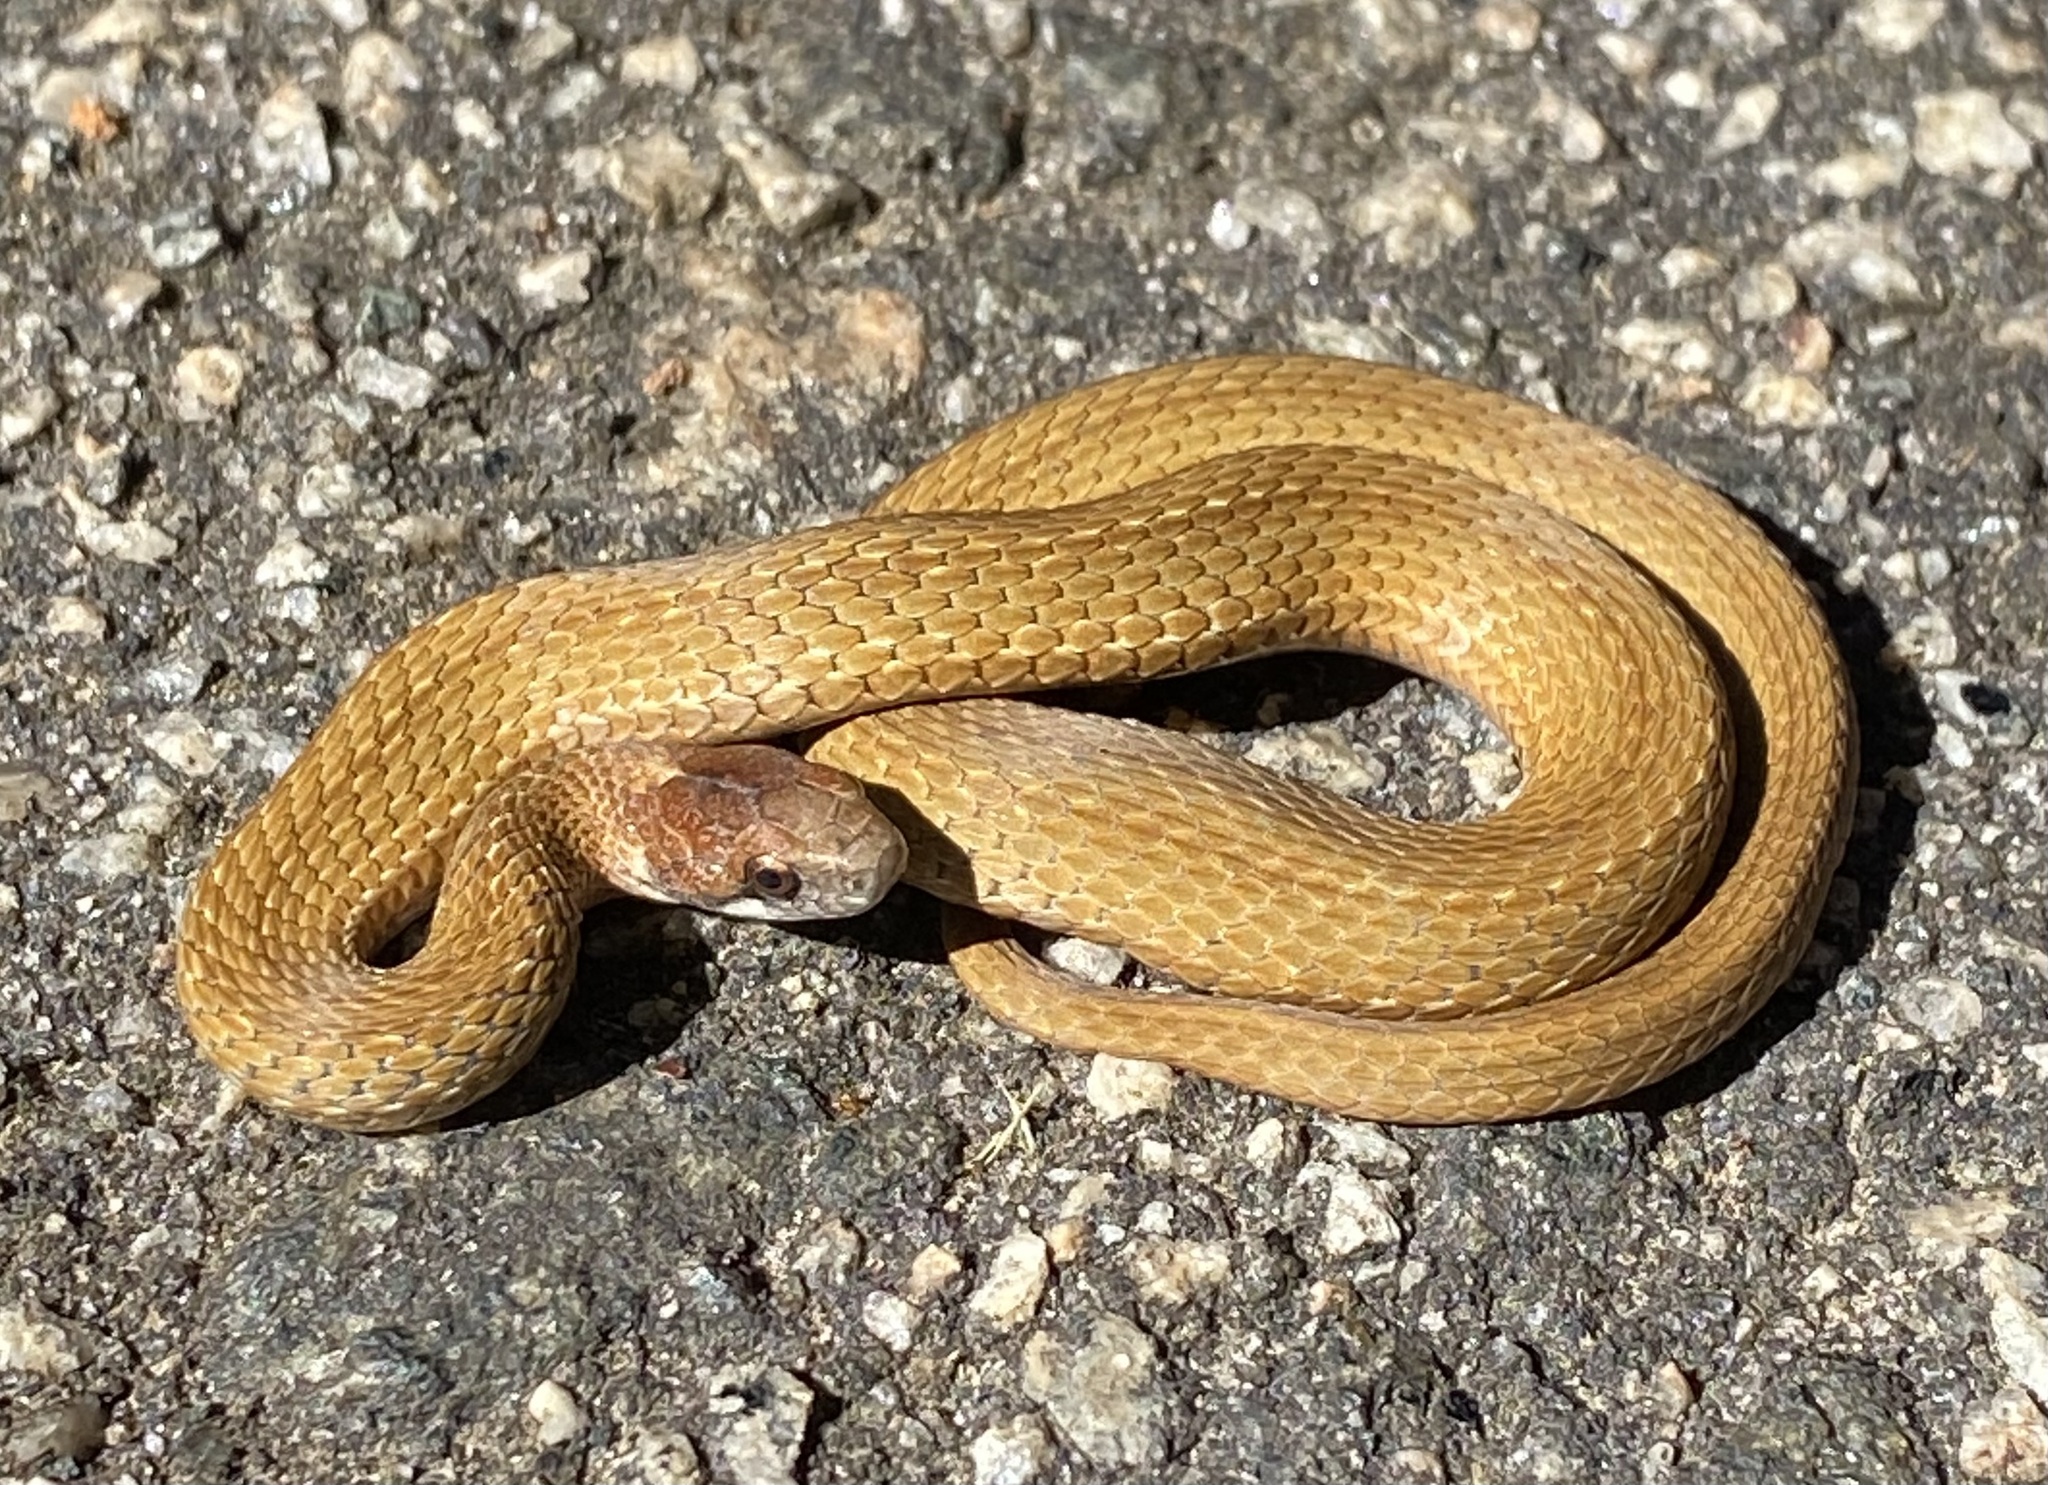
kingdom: Animalia
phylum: Chordata
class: Squamata
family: Colubridae
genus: Storeria
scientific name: Storeria occipitomaculata
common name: Redbelly snake
